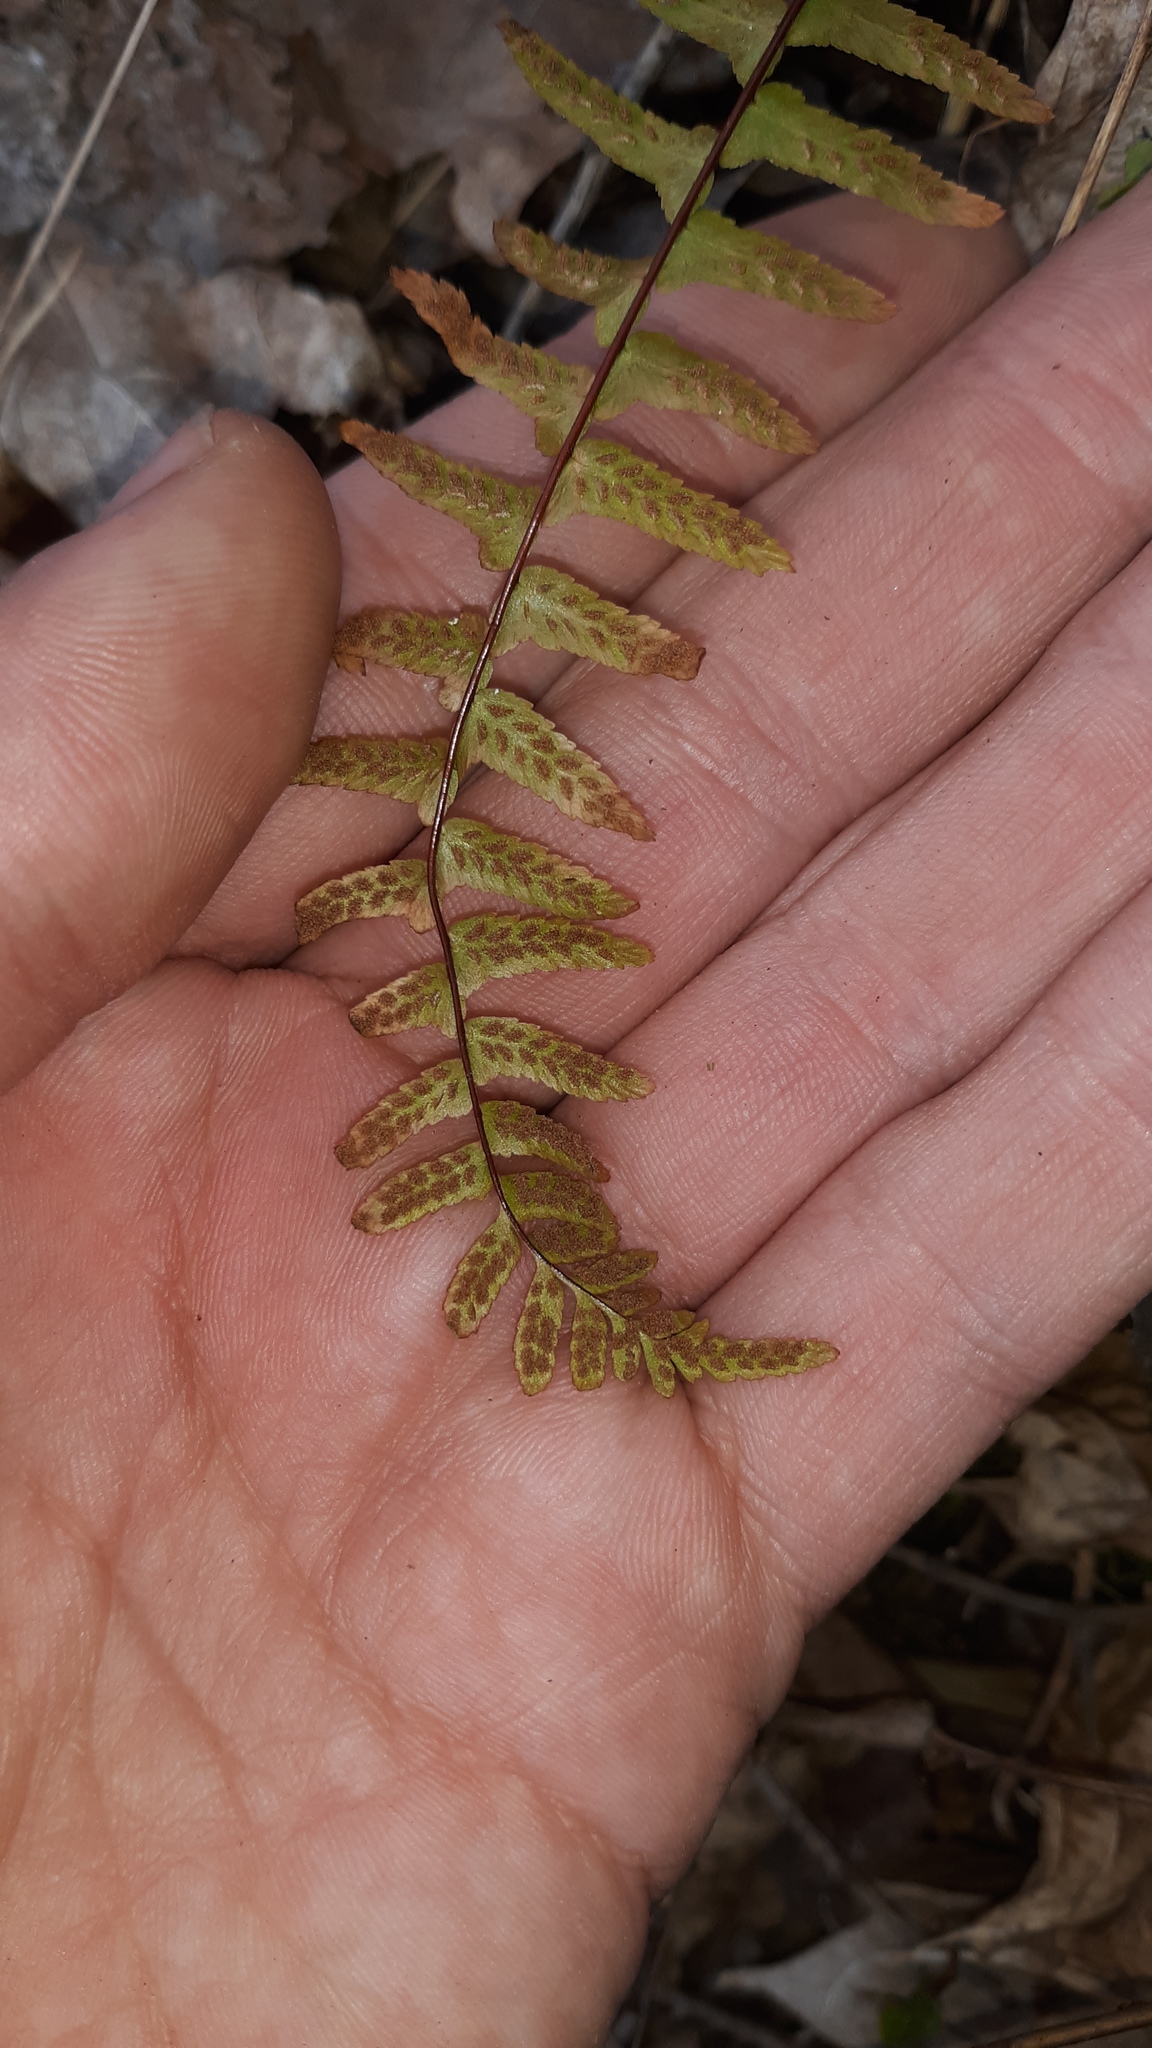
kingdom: Plantae
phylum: Tracheophyta
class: Polypodiopsida
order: Polypodiales
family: Aspleniaceae
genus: Asplenium
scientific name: Asplenium platyneuron
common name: Ebony spleenwort
